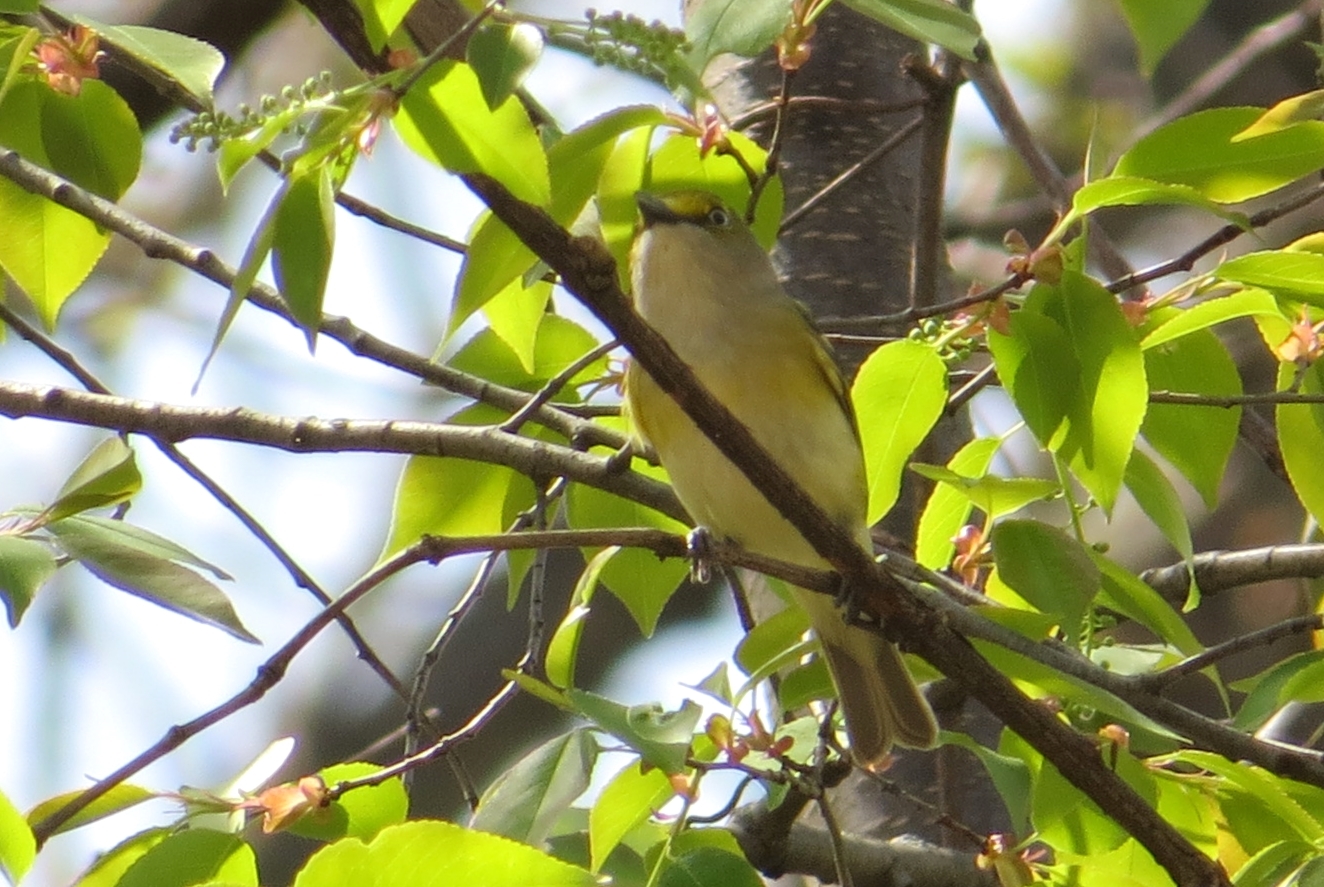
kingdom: Animalia
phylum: Chordata
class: Aves
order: Passeriformes
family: Vireonidae
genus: Vireo
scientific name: Vireo griseus
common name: White-eyed vireo
